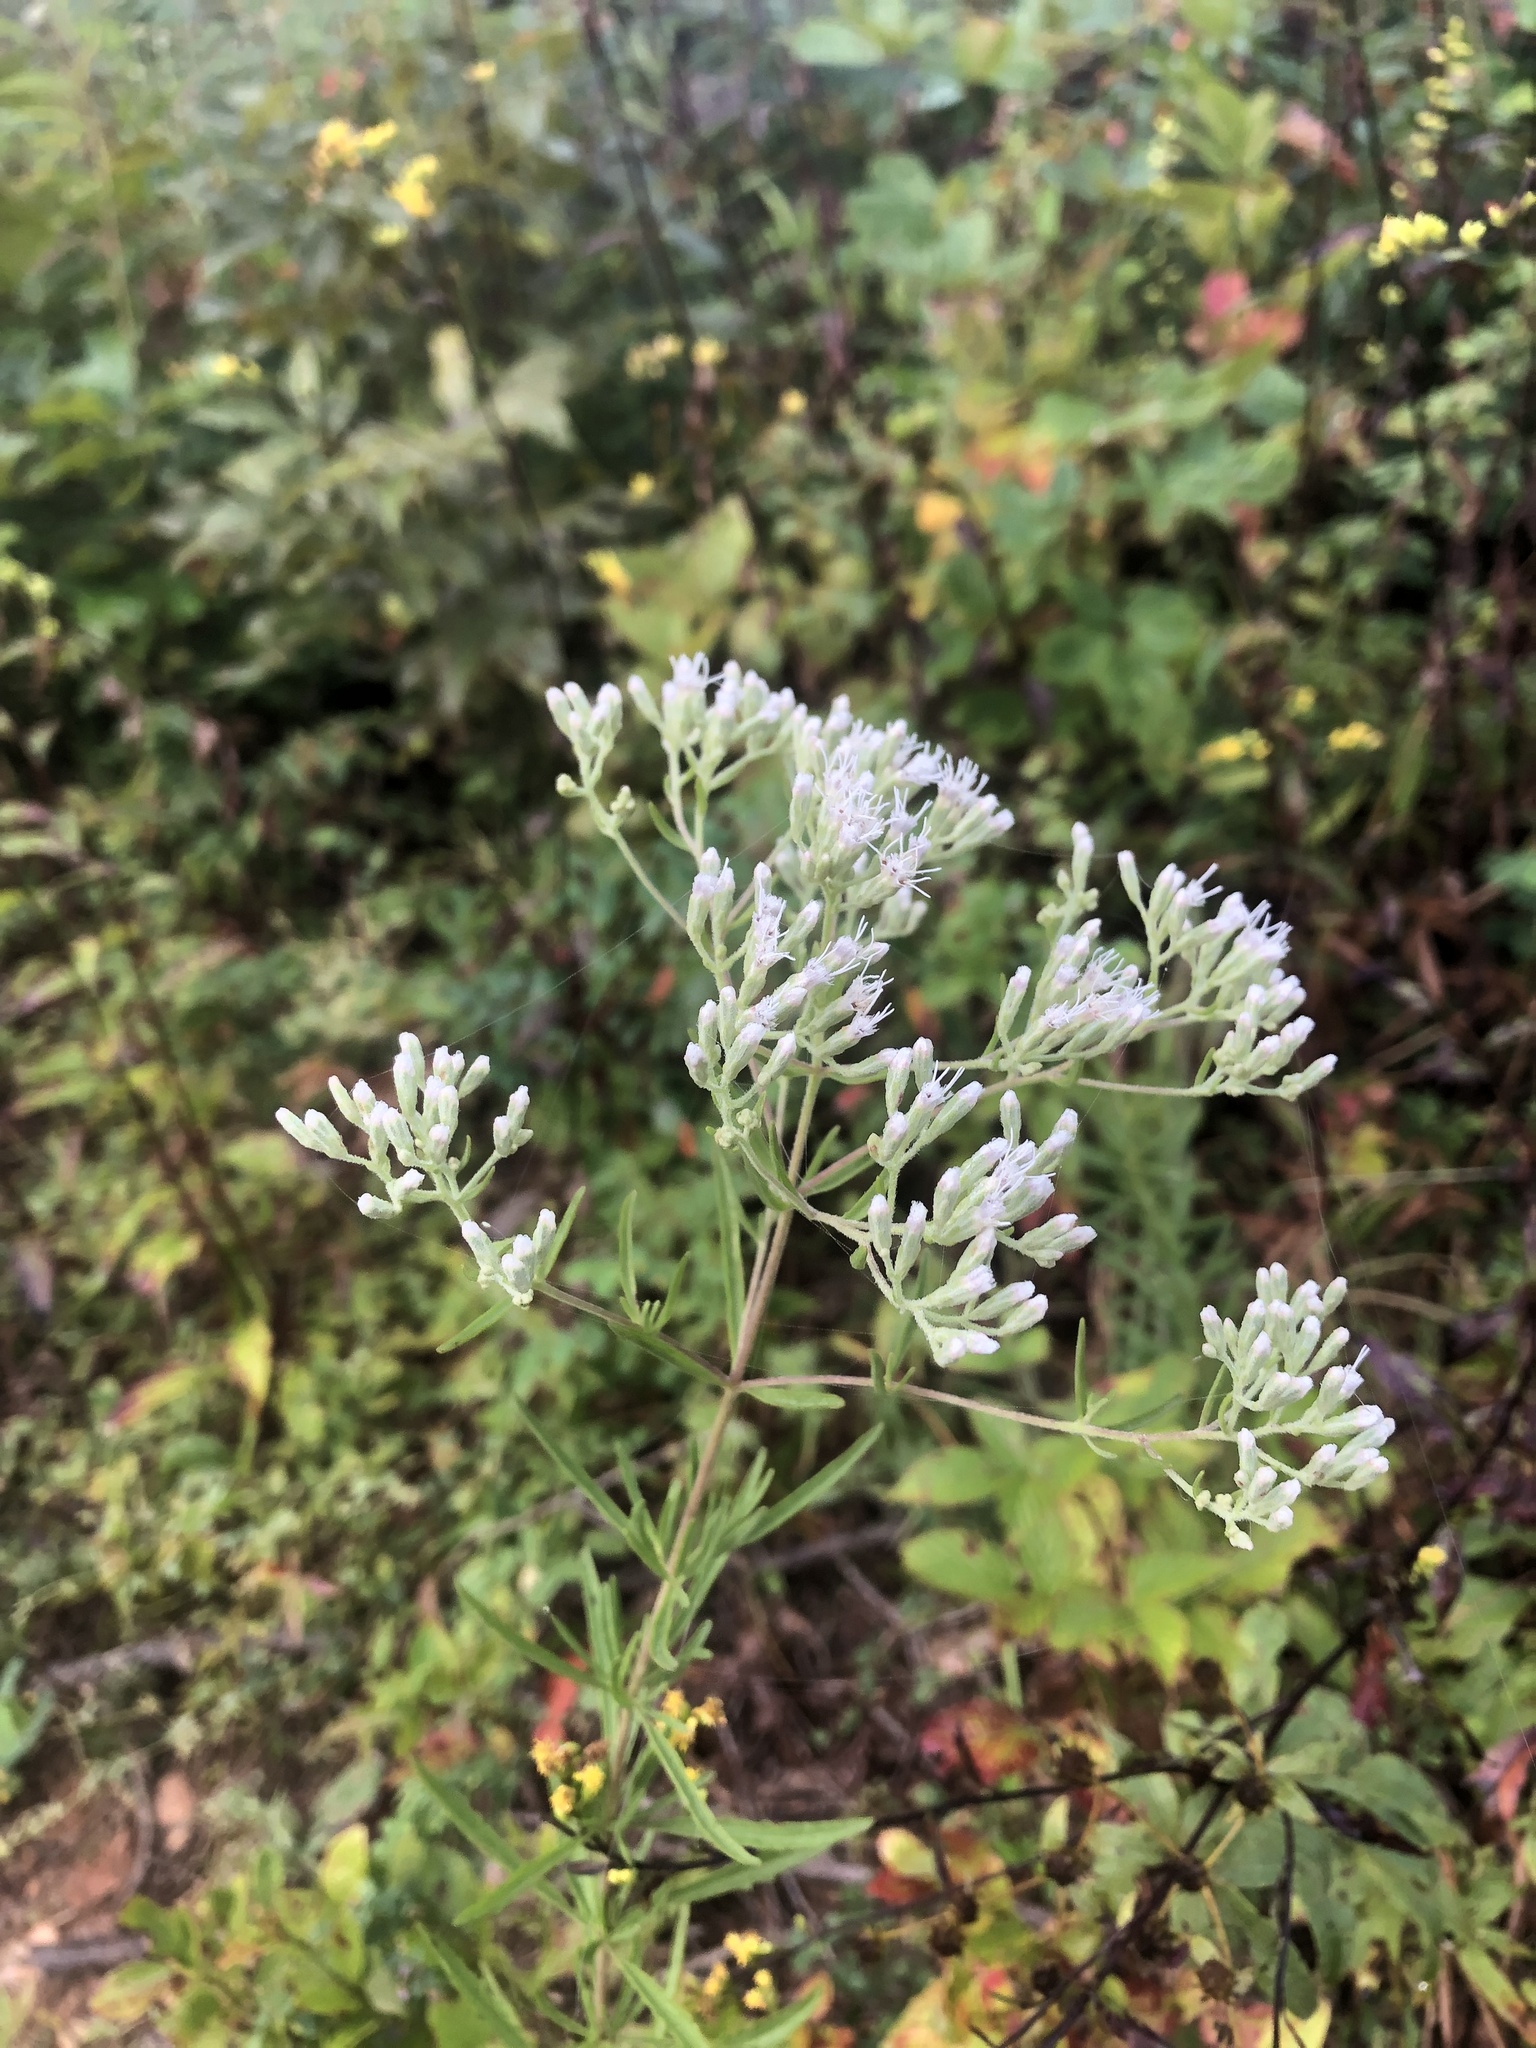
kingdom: Plantae
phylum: Tracheophyta
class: Magnoliopsida
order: Asterales
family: Asteraceae
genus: Eupatorium
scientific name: Eupatorium torreyanum
